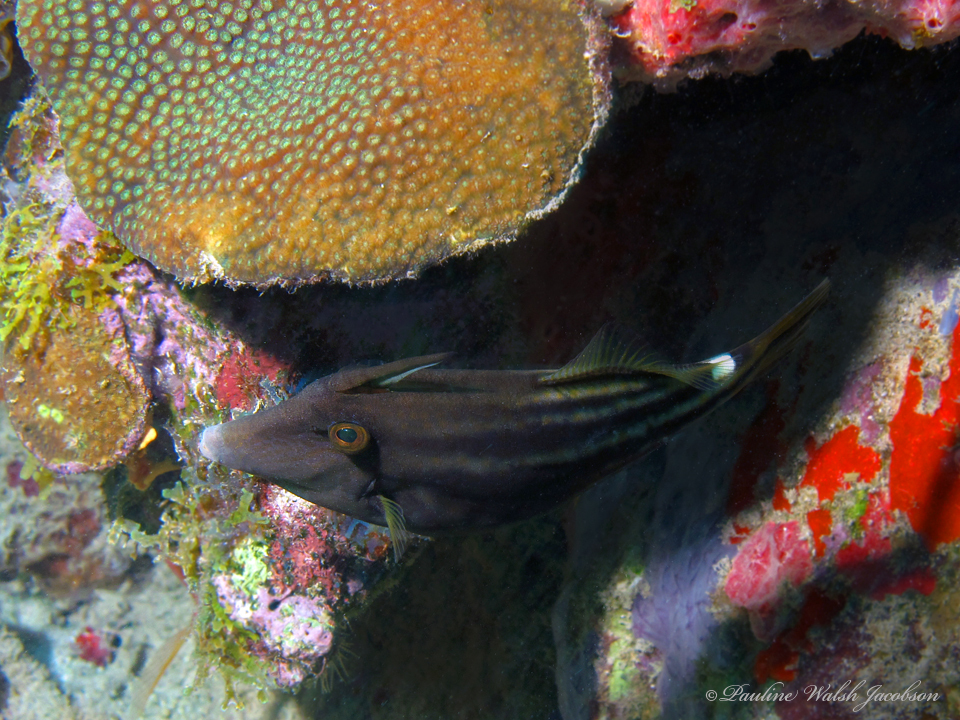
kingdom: Animalia
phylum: Chordata
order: Tetraodontiformes
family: Monacanthidae
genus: Cantherhines
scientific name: Cantherhines pullus
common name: Orangespotted filefish
